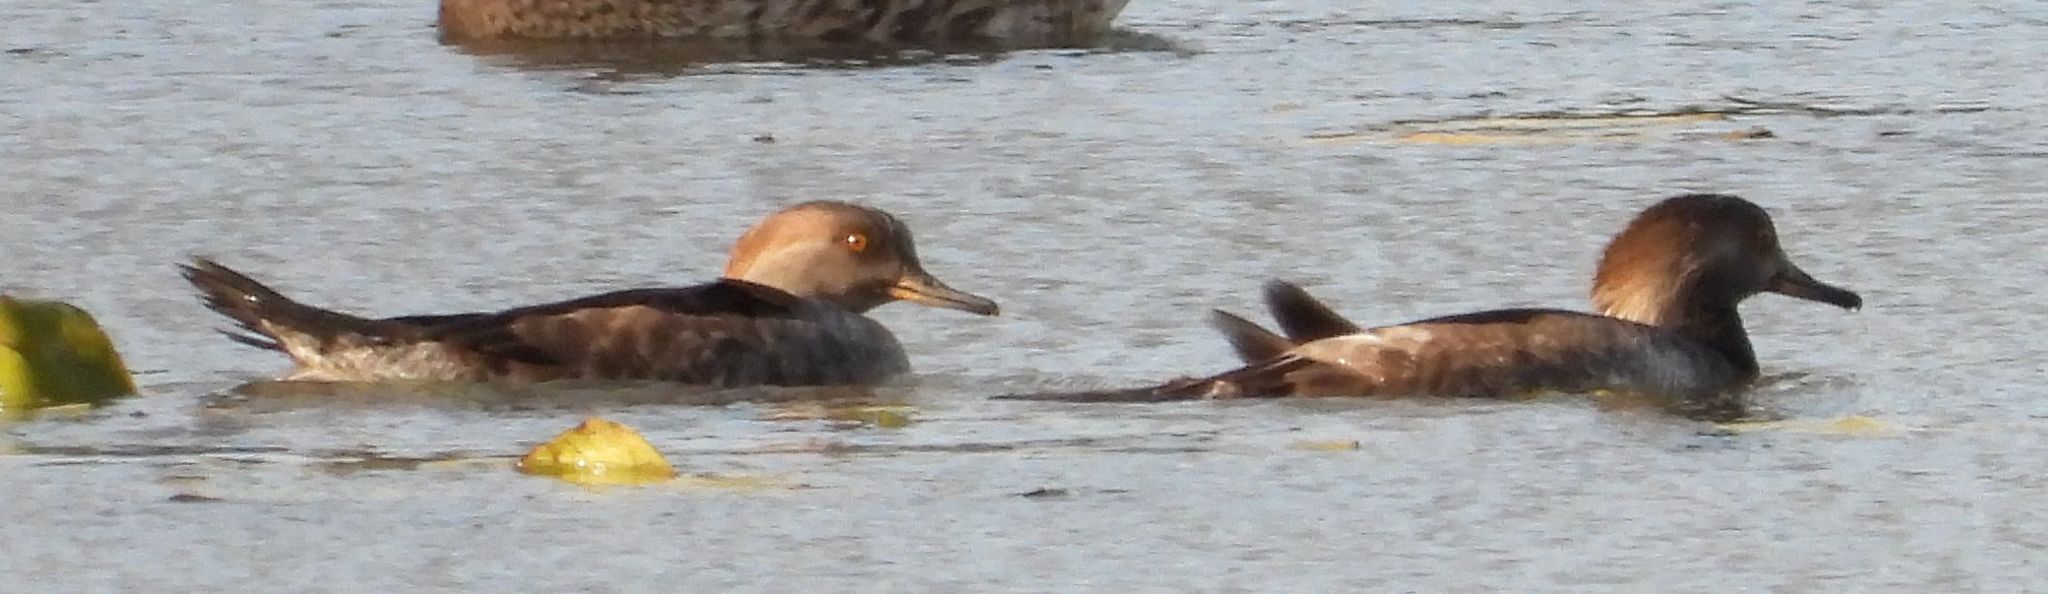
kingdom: Animalia
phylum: Chordata
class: Aves
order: Anseriformes
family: Anatidae
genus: Lophodytes
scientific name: Lophodytes cucullatus
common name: Hooded merganser
